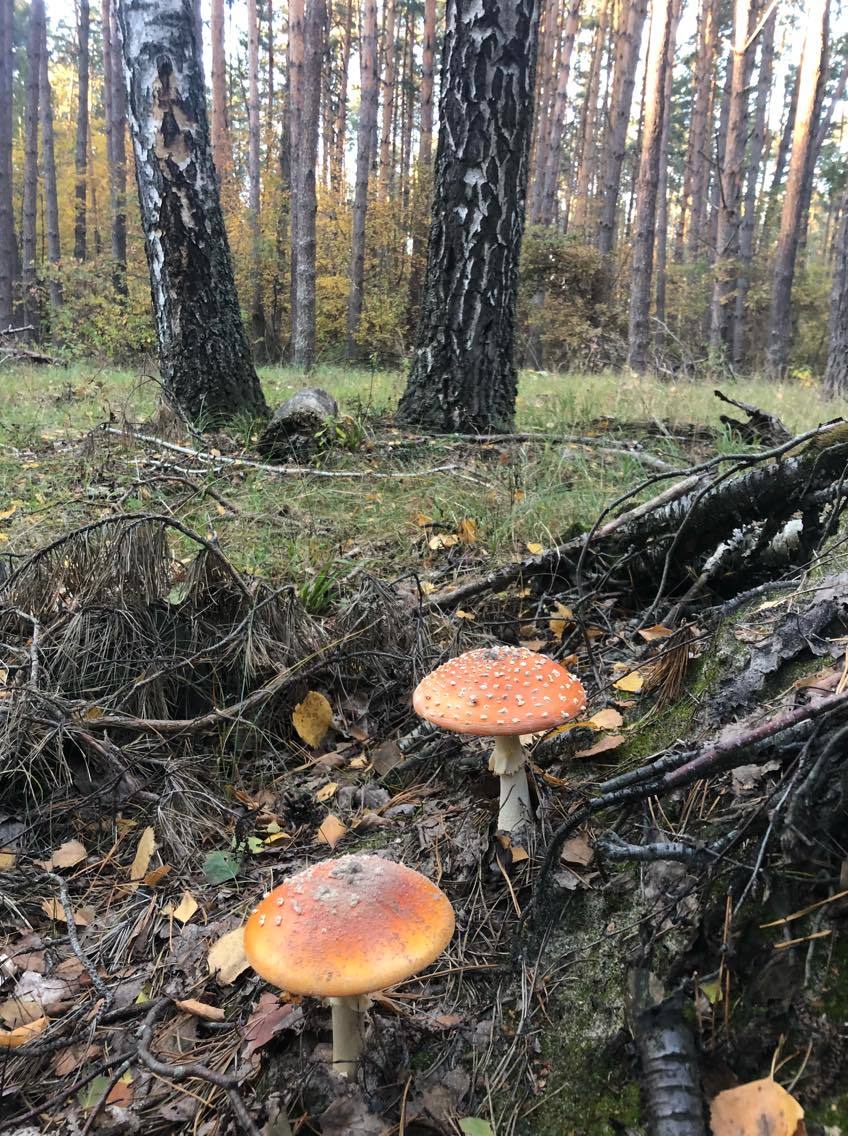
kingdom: Fungi
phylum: Basidiomycota
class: Agaricomycetes
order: Agaricales
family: Amanitaceae
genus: Amanita
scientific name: Amanita muscaria
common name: Fly agaric
